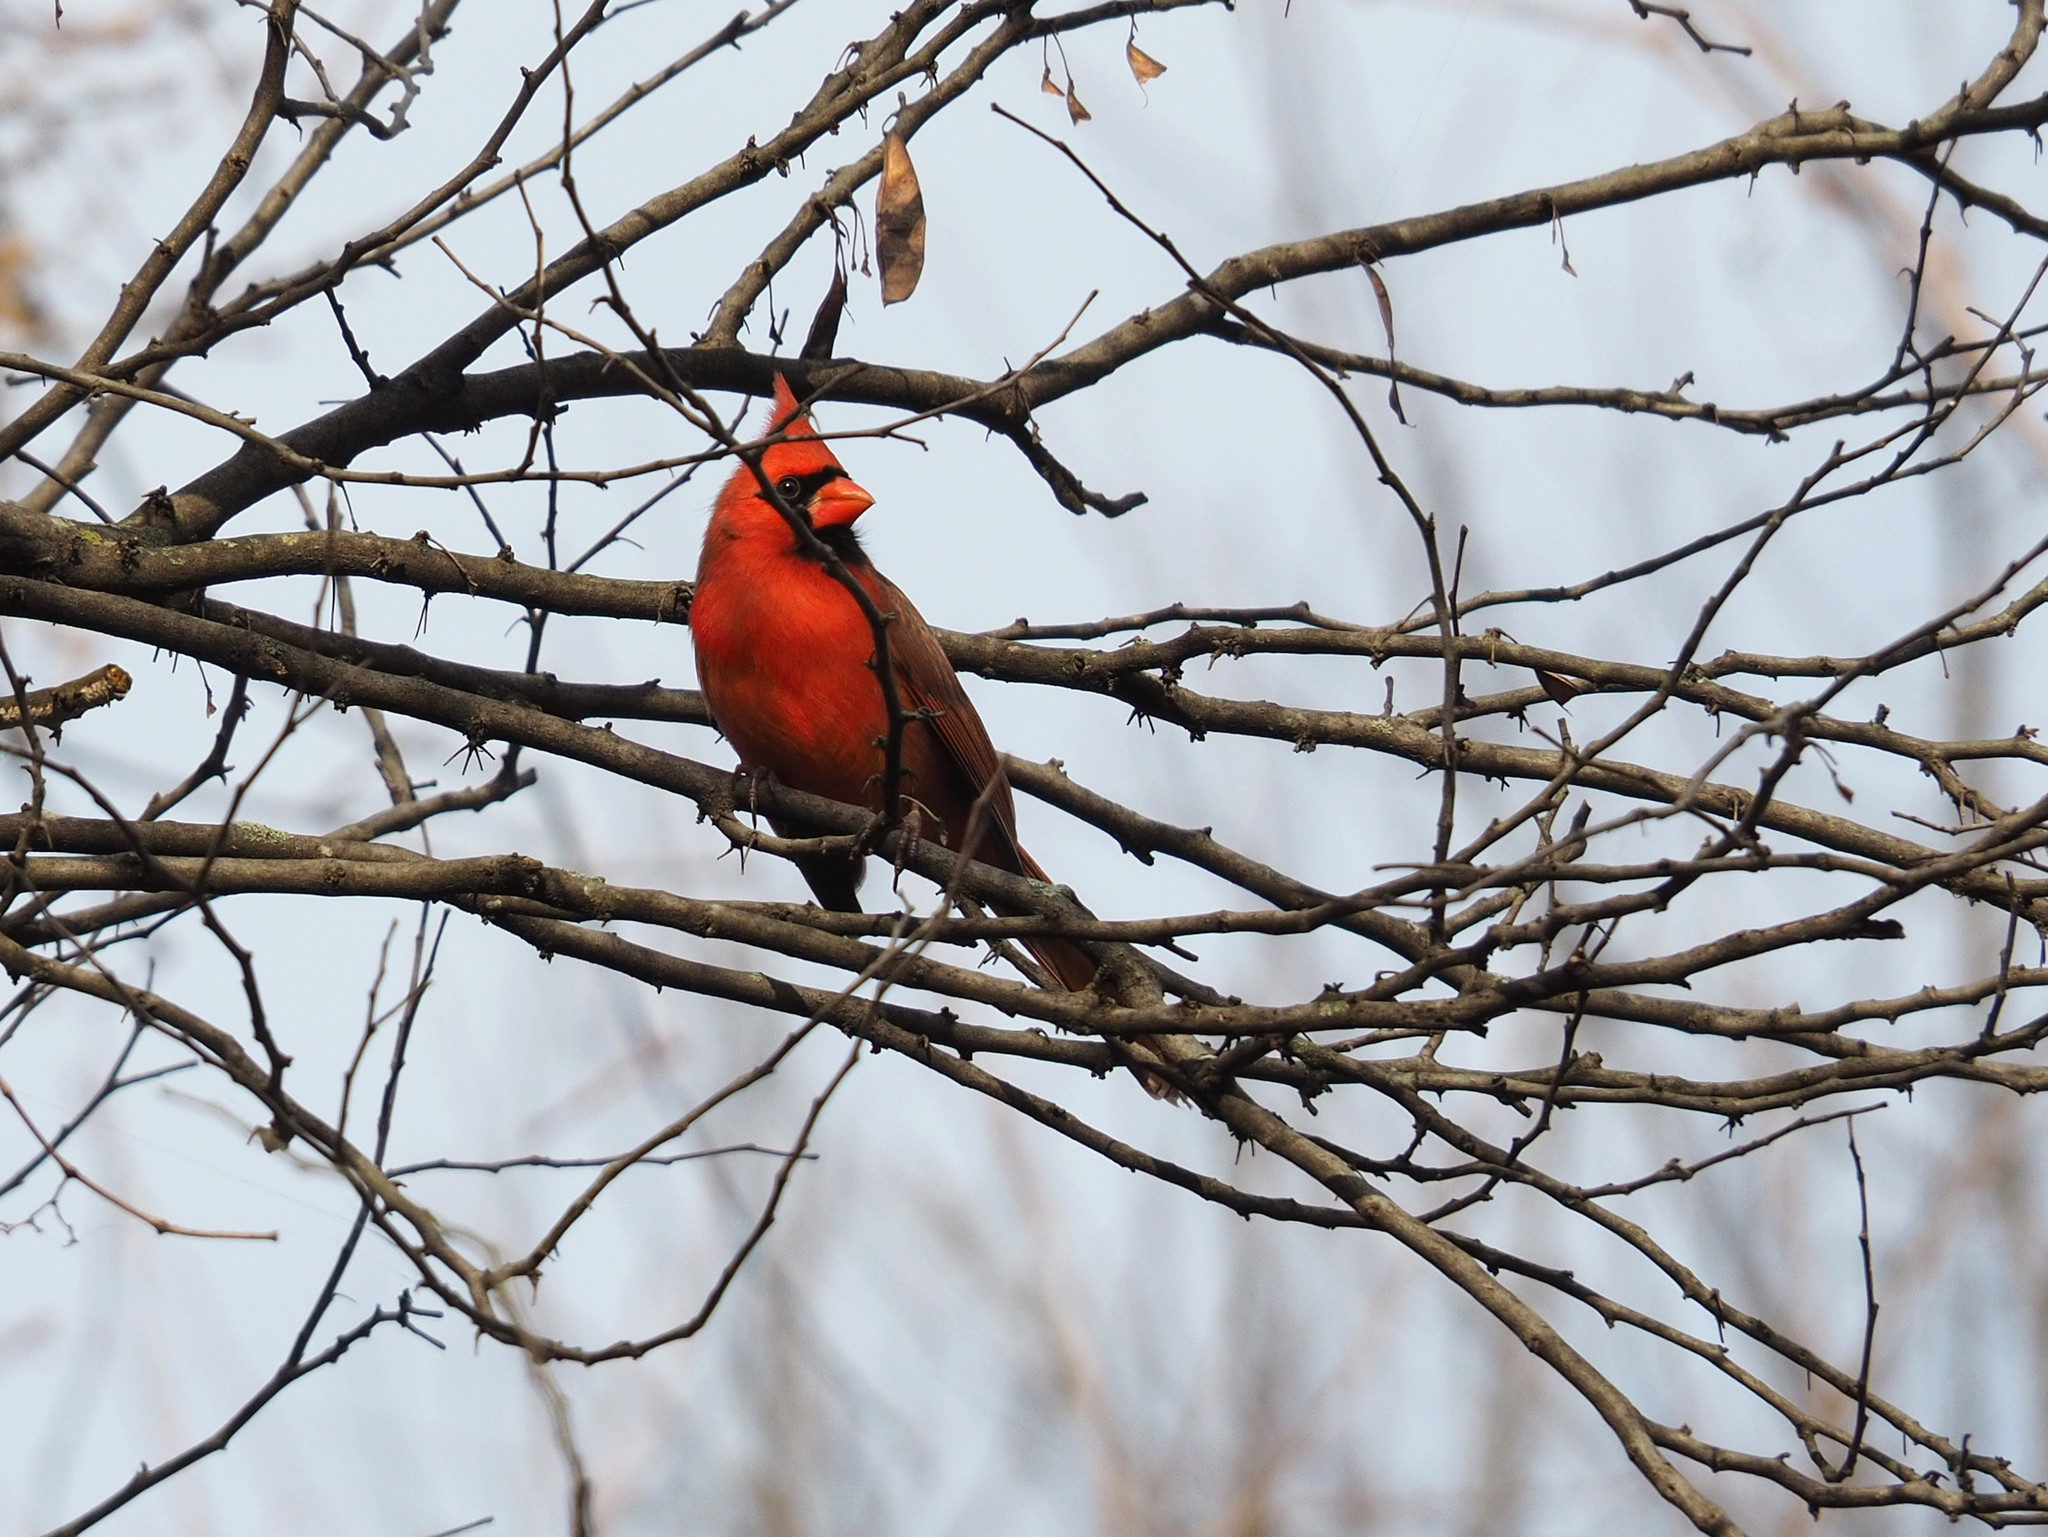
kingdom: Animalia
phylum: Chordata
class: Aves
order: Passeriformes
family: Cardinalidae
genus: Cardinalis
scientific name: Cardinalis cardinalis
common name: Northern cardinal
